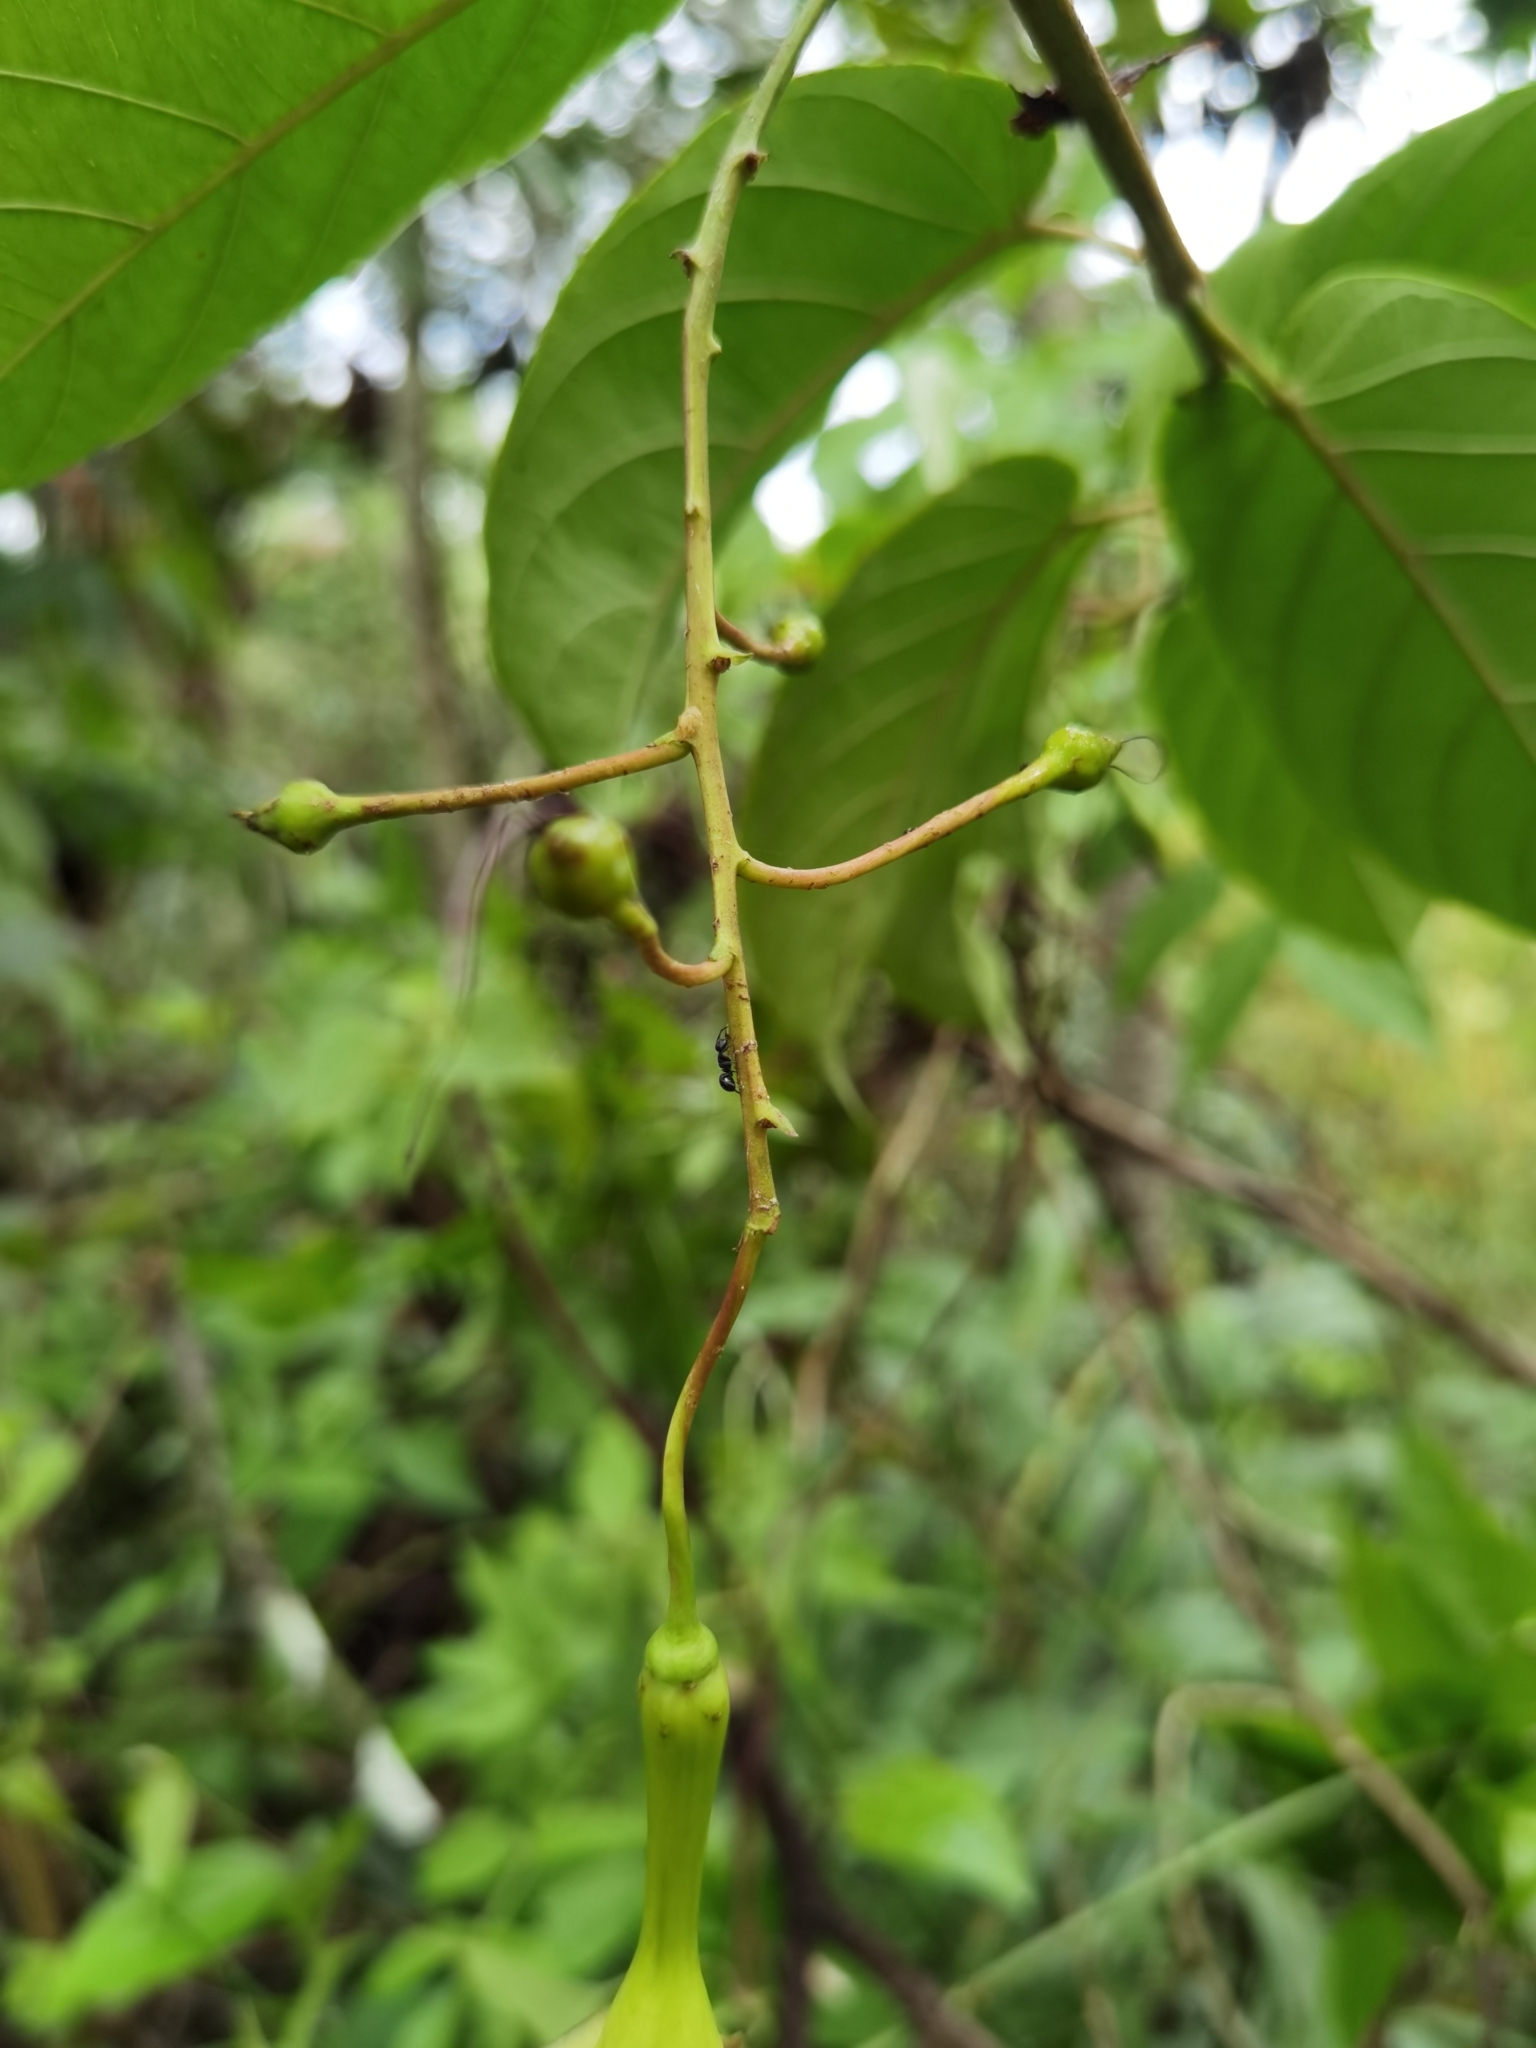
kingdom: Plantae
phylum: Tracheophyta
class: Magnoliopsida
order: Gentianales
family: Apocynaceae
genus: Mandevilla
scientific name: Mandevilla veraguasensis
